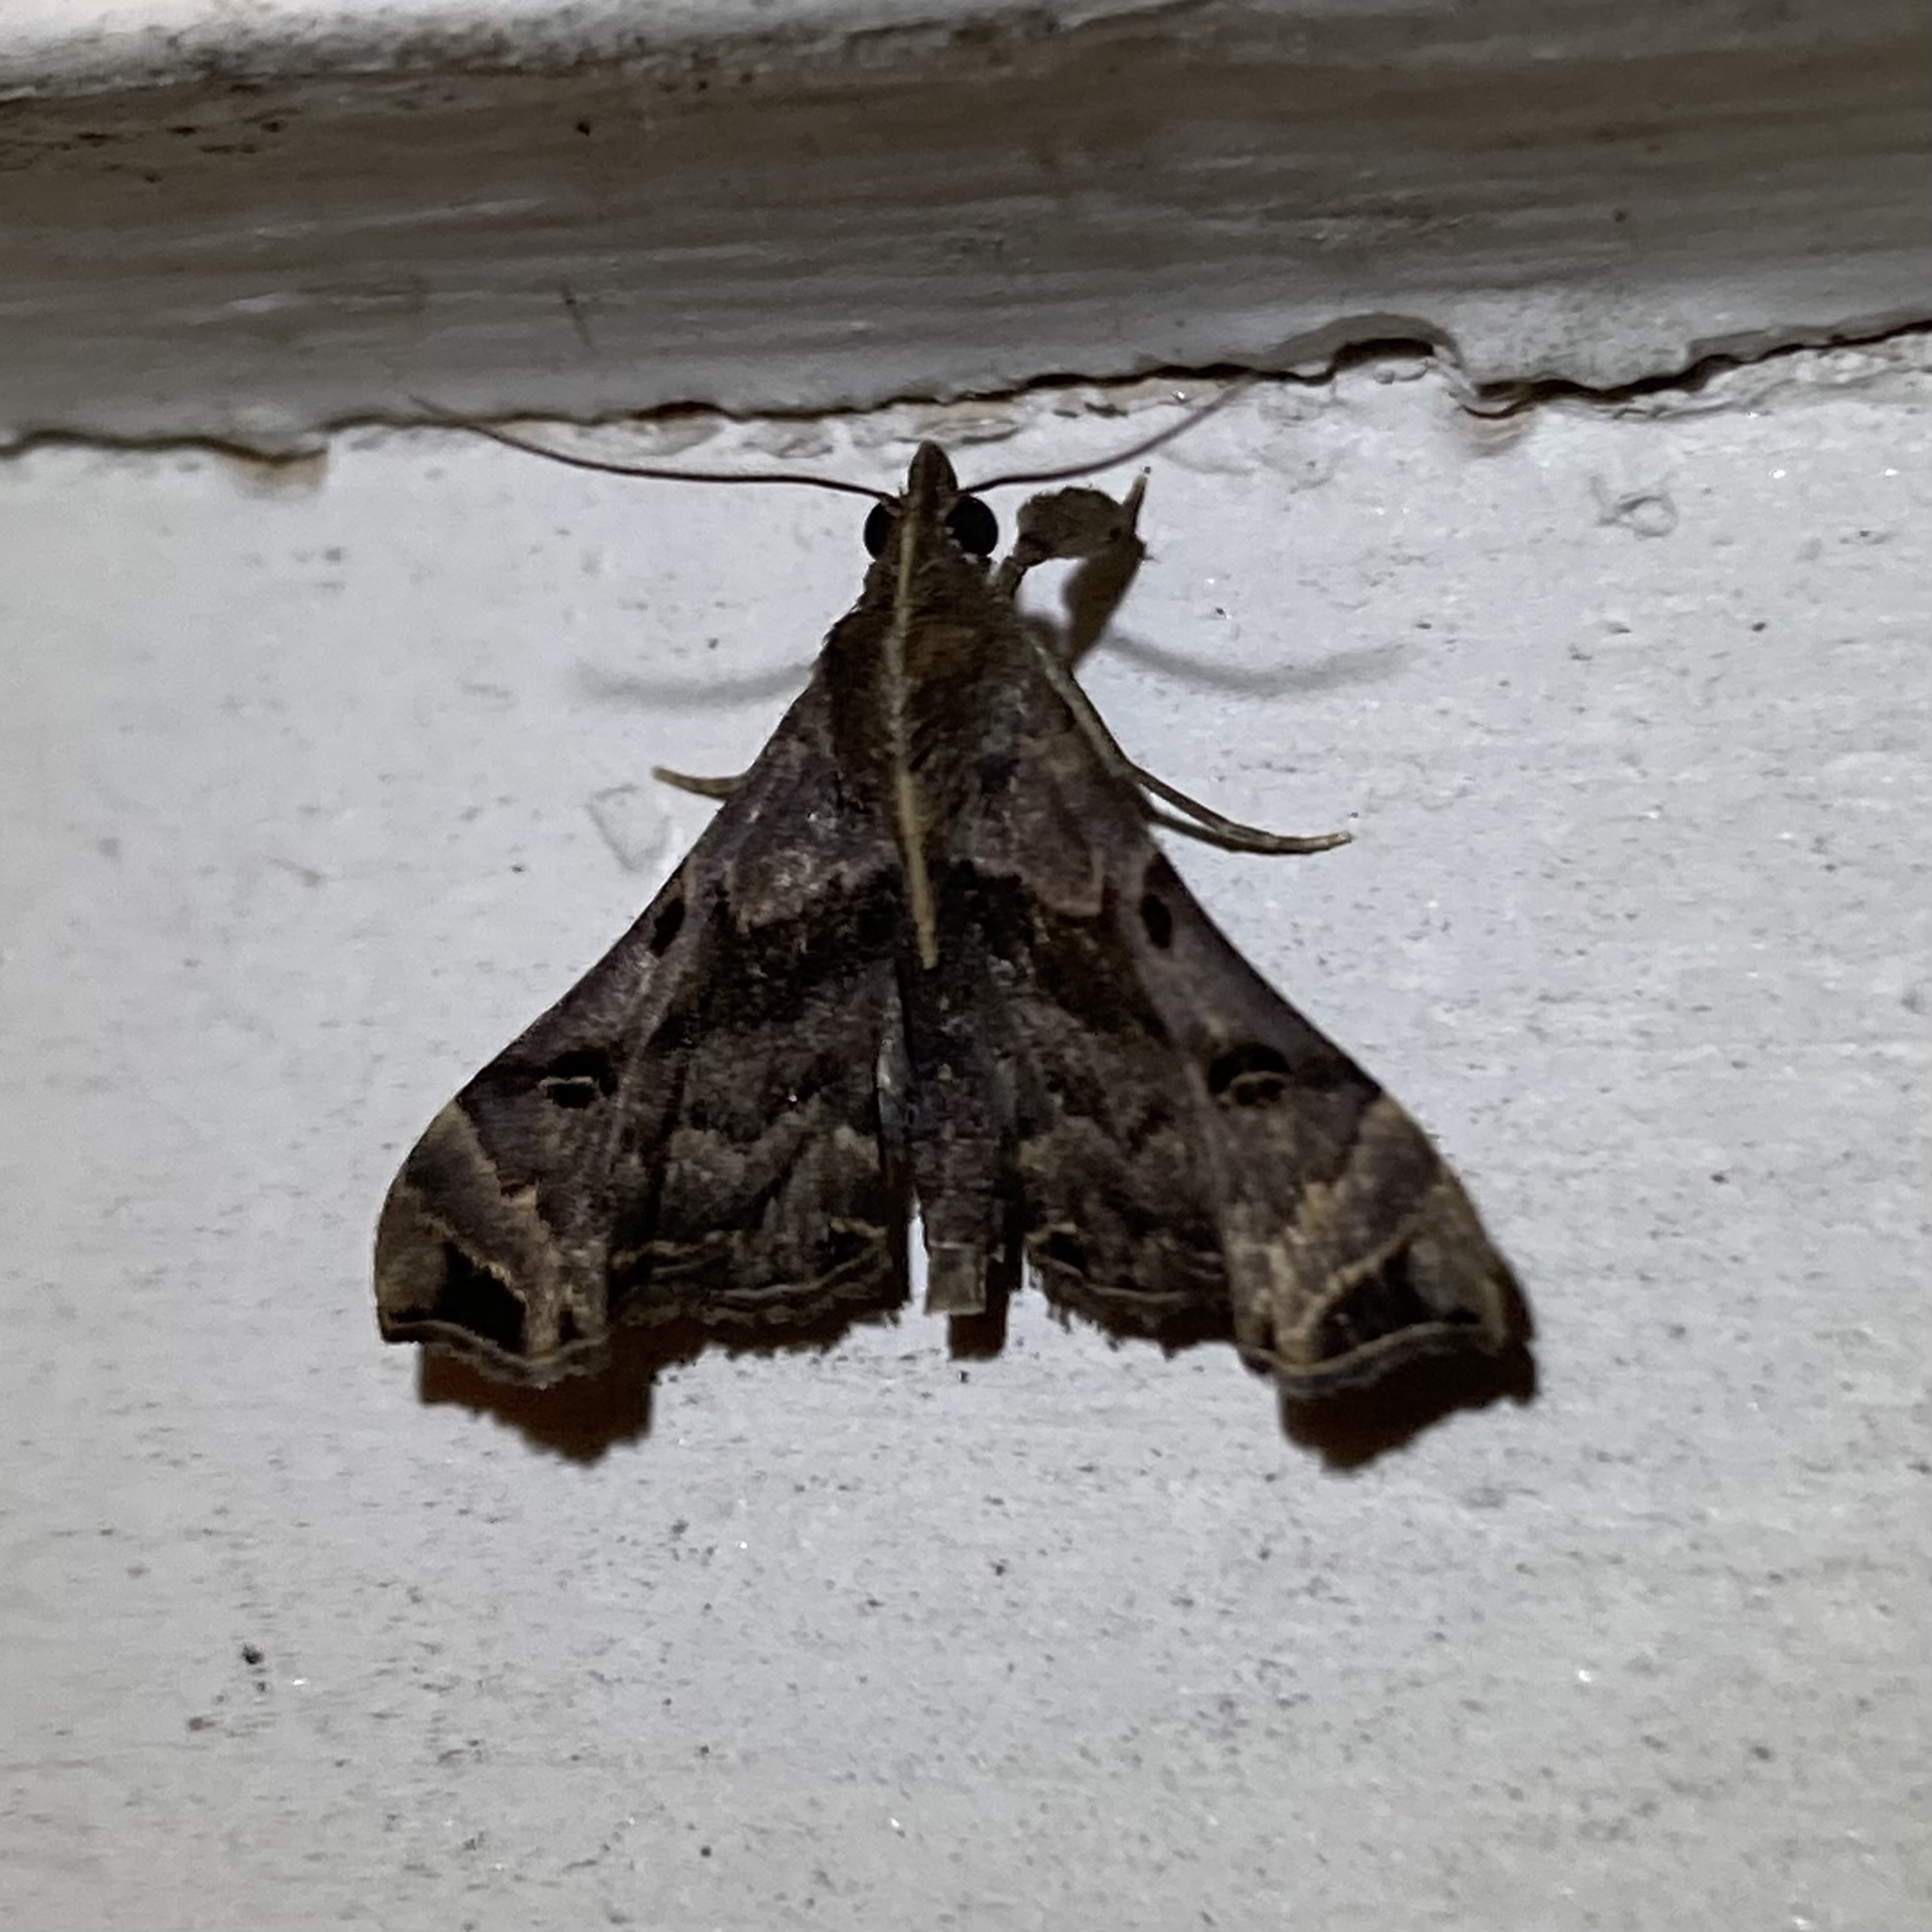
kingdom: Animalia
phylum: Arthropoda
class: Insecta
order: Lepidoptera
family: Erebidae
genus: Palthis
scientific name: Palthis asopialis
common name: Faint-spotted palthis moth
